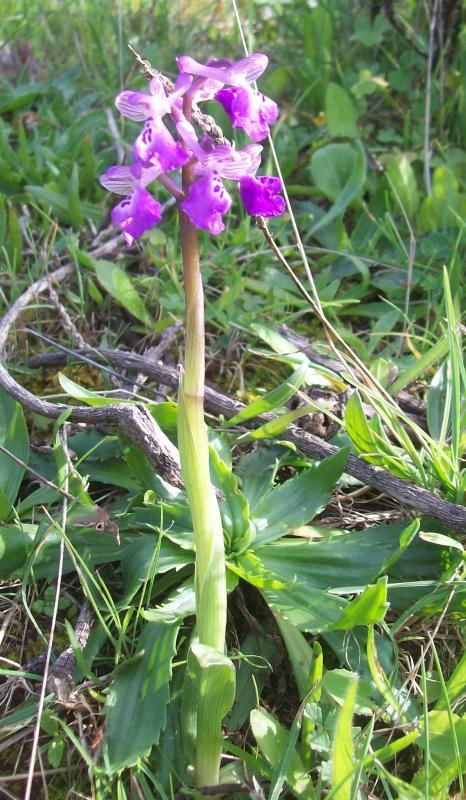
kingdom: Plantae
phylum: Tracheophyta
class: Liliopsida
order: Asparagales
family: Orchidaceae
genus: Anacamptis
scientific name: Anacamptis morio
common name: Green-winged orchid
